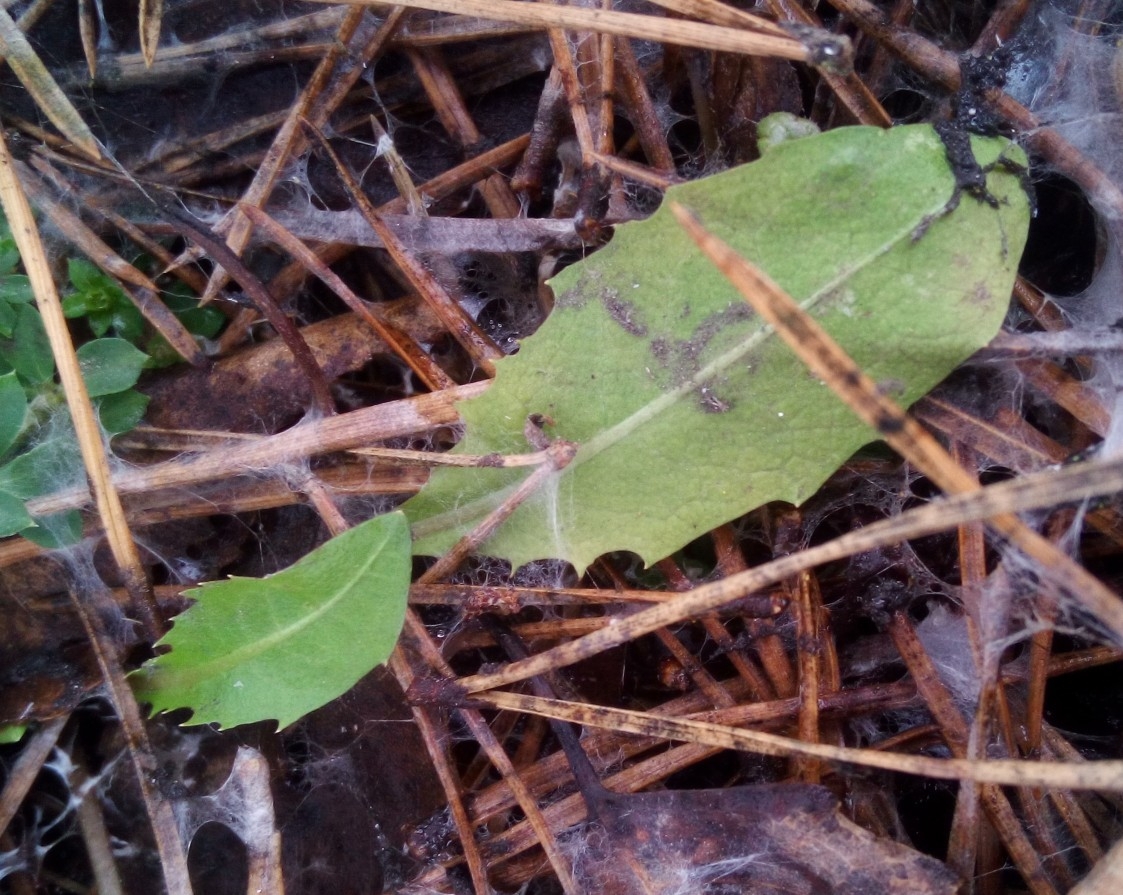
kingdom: Plantae
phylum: Tracheophyta
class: Magnoliopsida
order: Asterales
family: Asteraceae
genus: Taraxacum
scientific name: Taraxacum officinale
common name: Common dandelion
